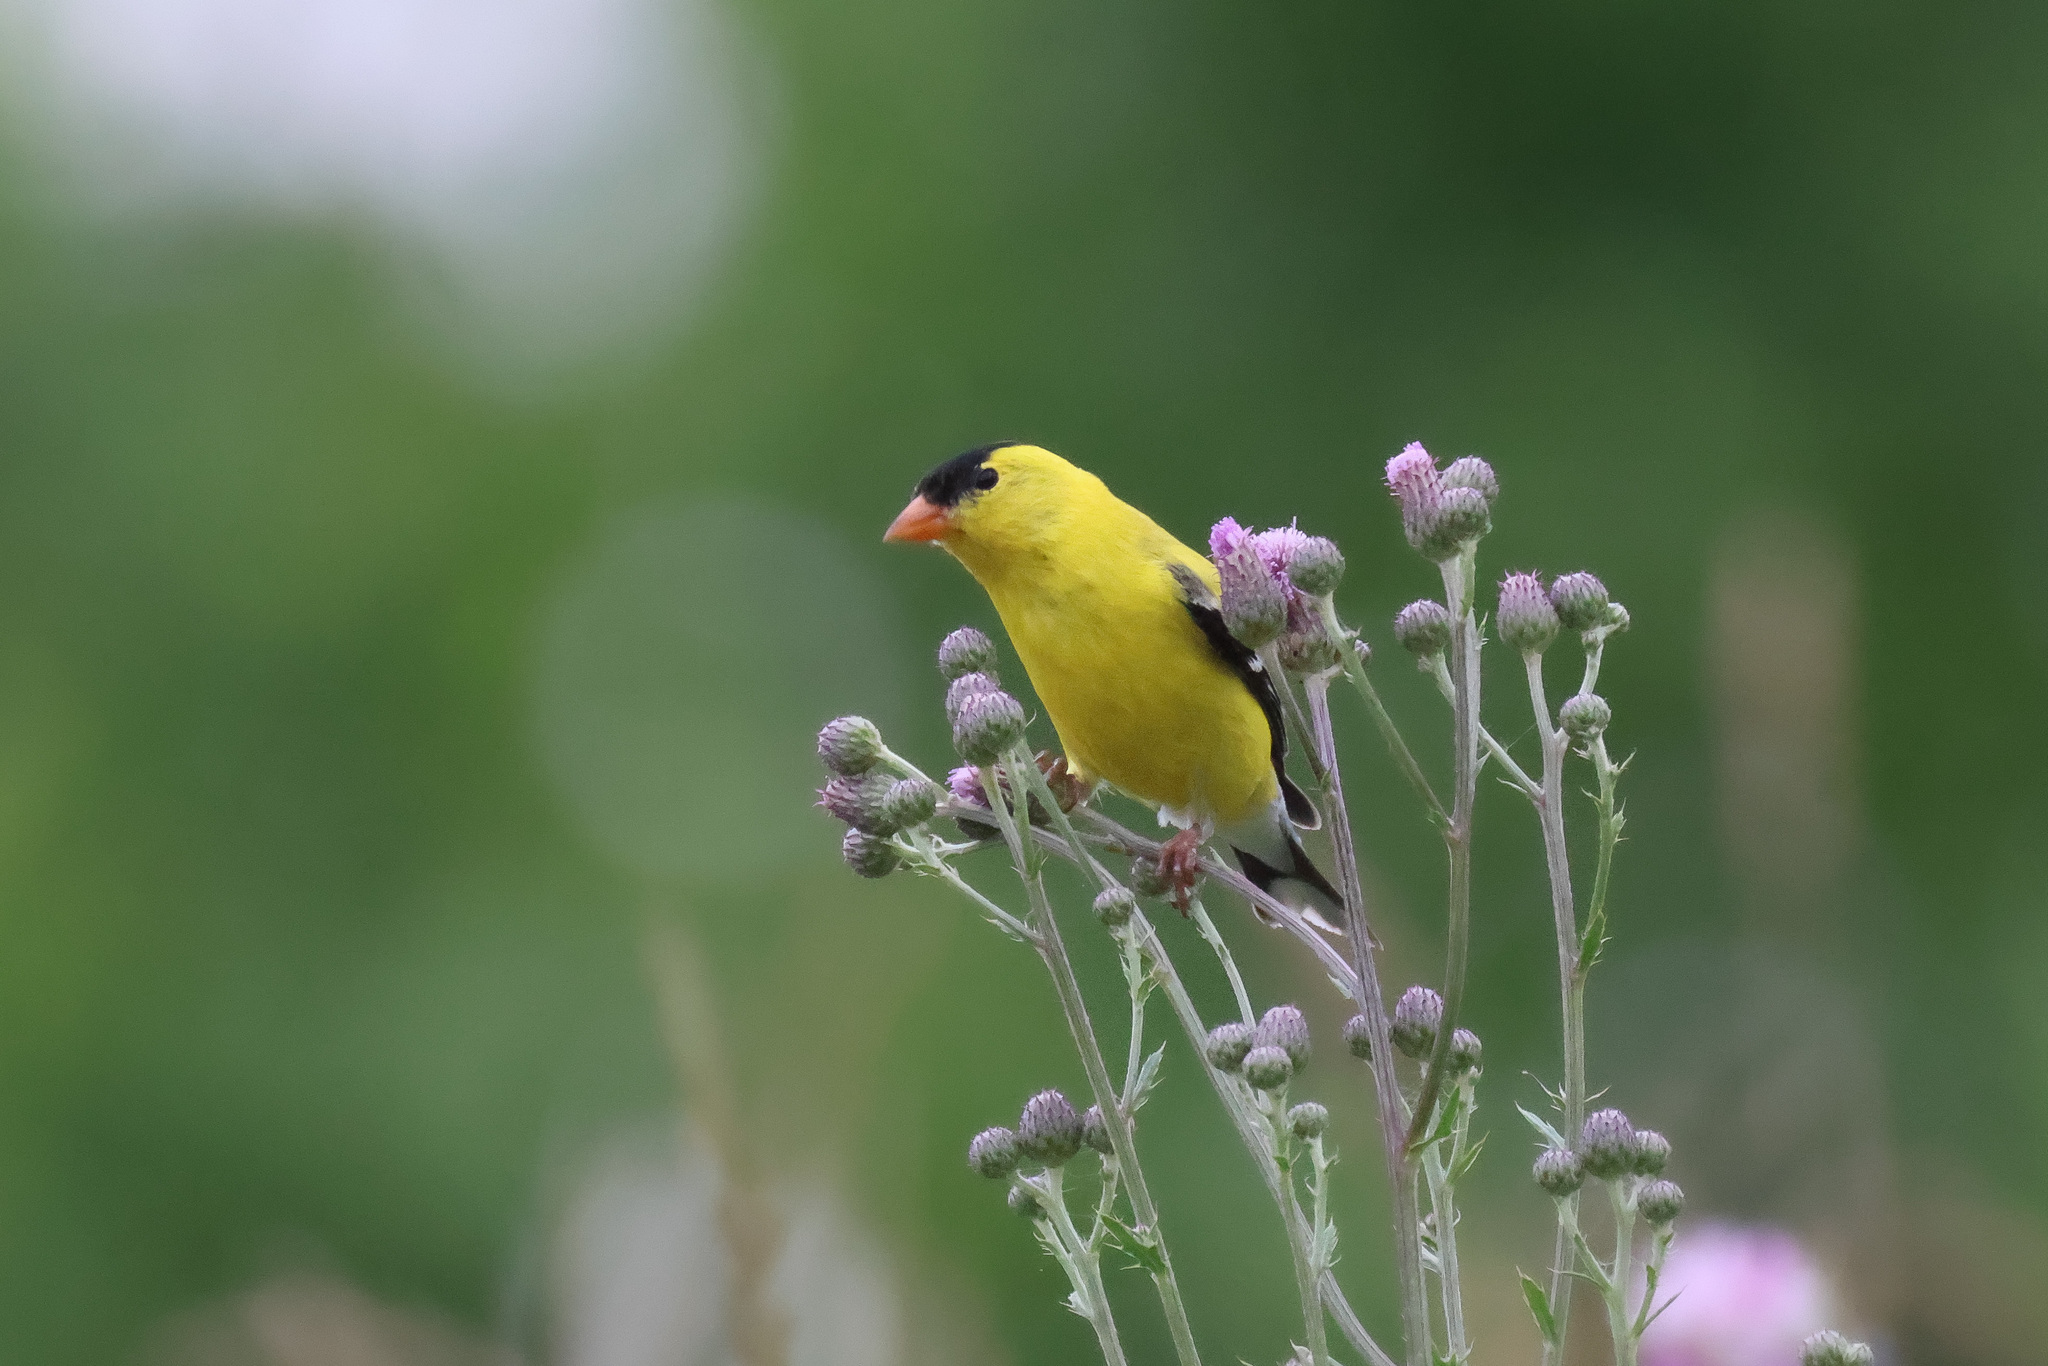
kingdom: Animalia
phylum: Chordata
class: Aves
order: Passeriformes
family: Fringillidae
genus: Spinus
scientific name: Spinus tristis
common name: American goldfinch
